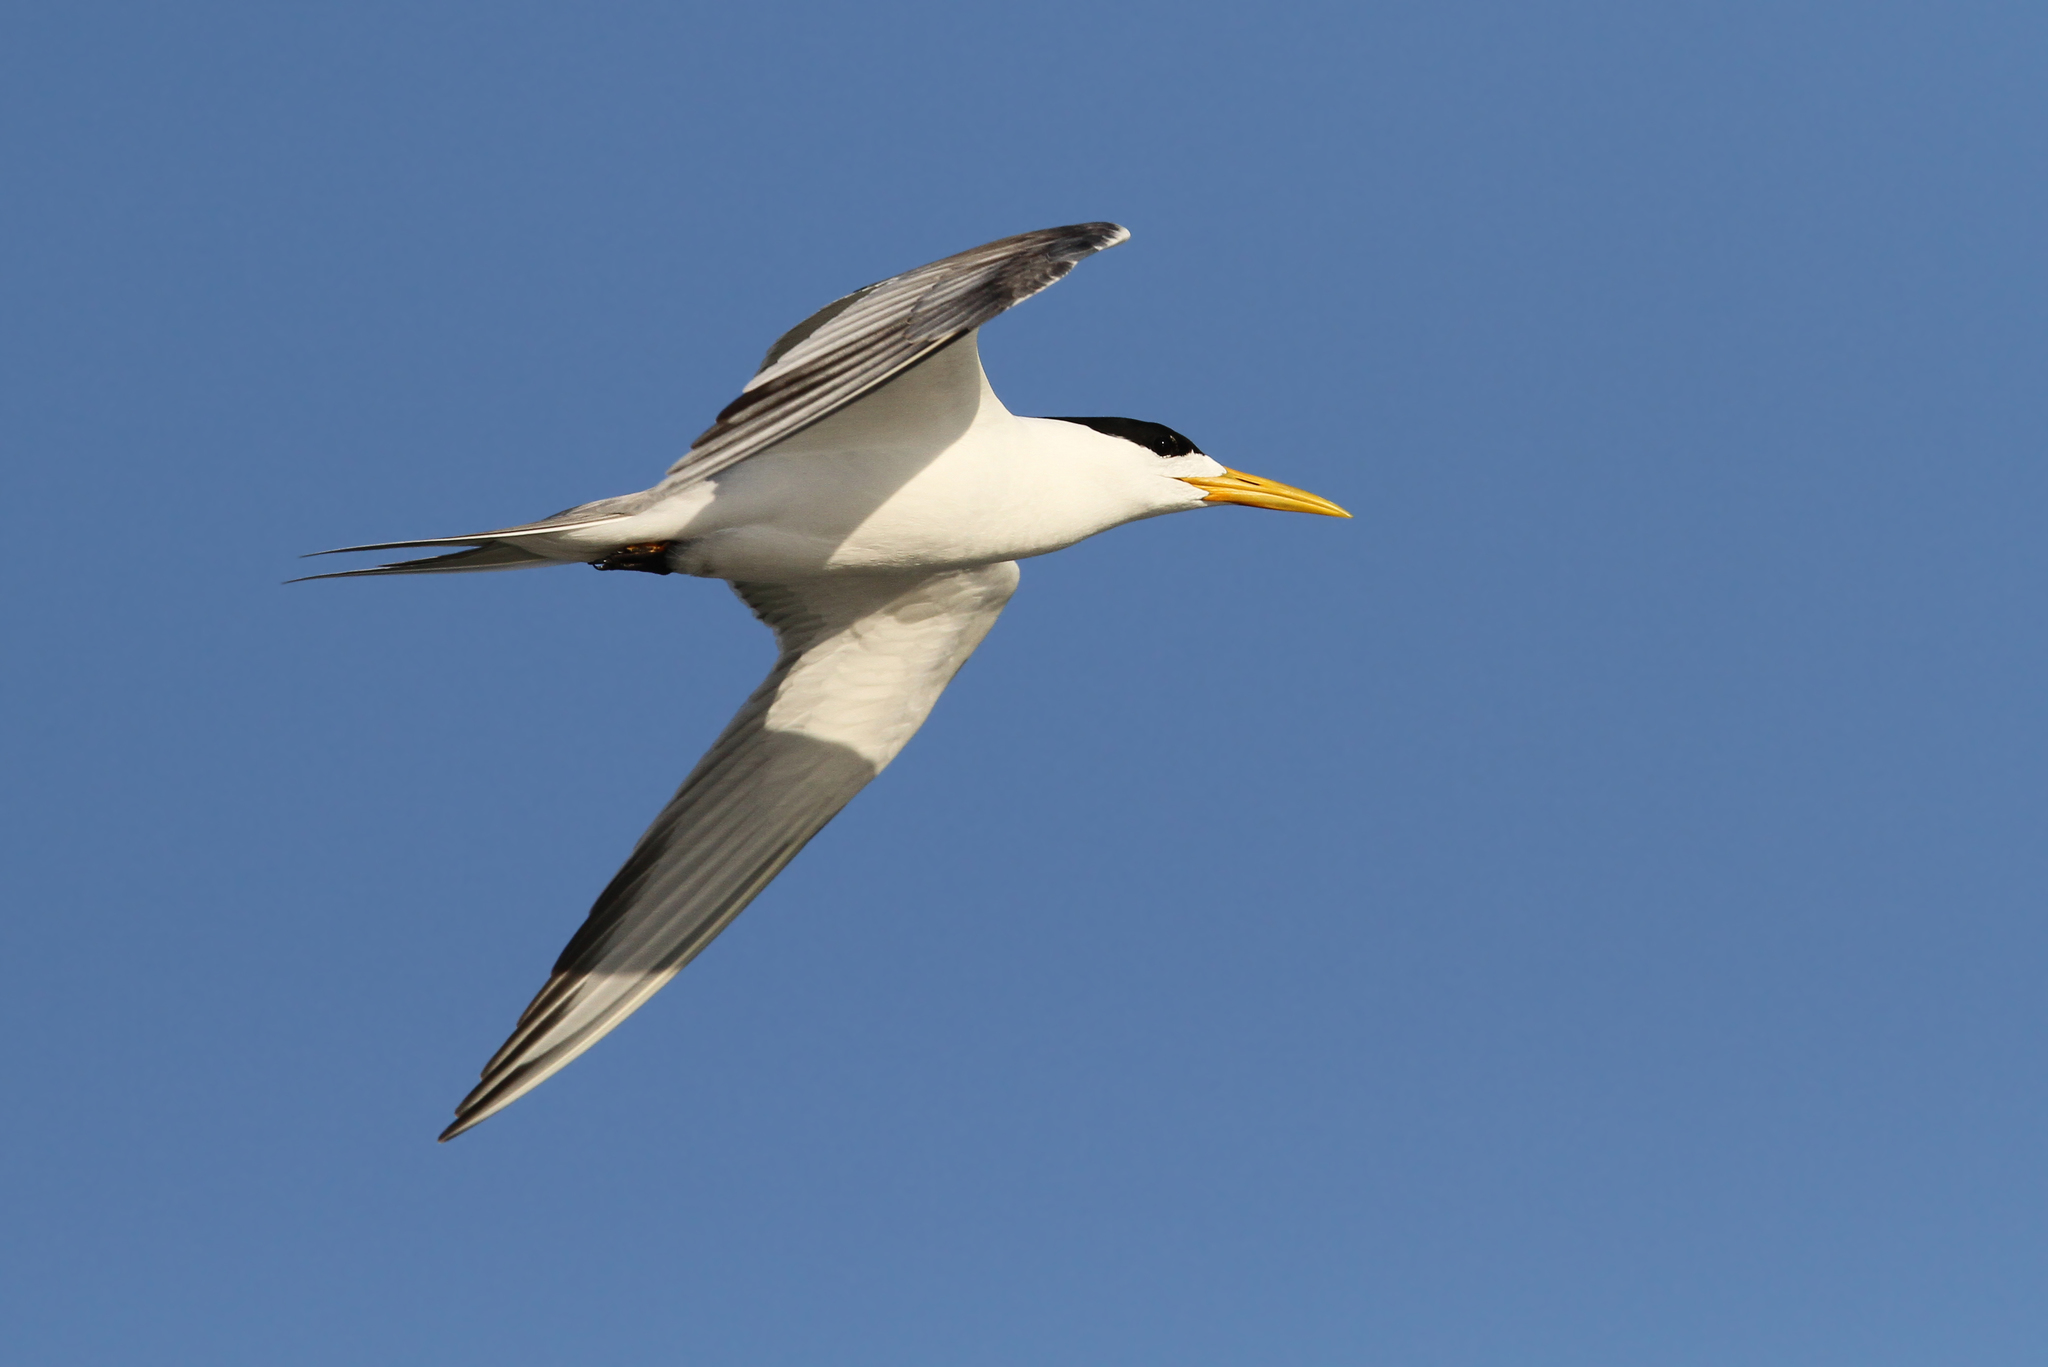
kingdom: Animalia
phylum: Chordata
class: Aves
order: Charadriiformes
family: Laridae
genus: Thalasseus
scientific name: Thalasseus bergii
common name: Greater crested tern
